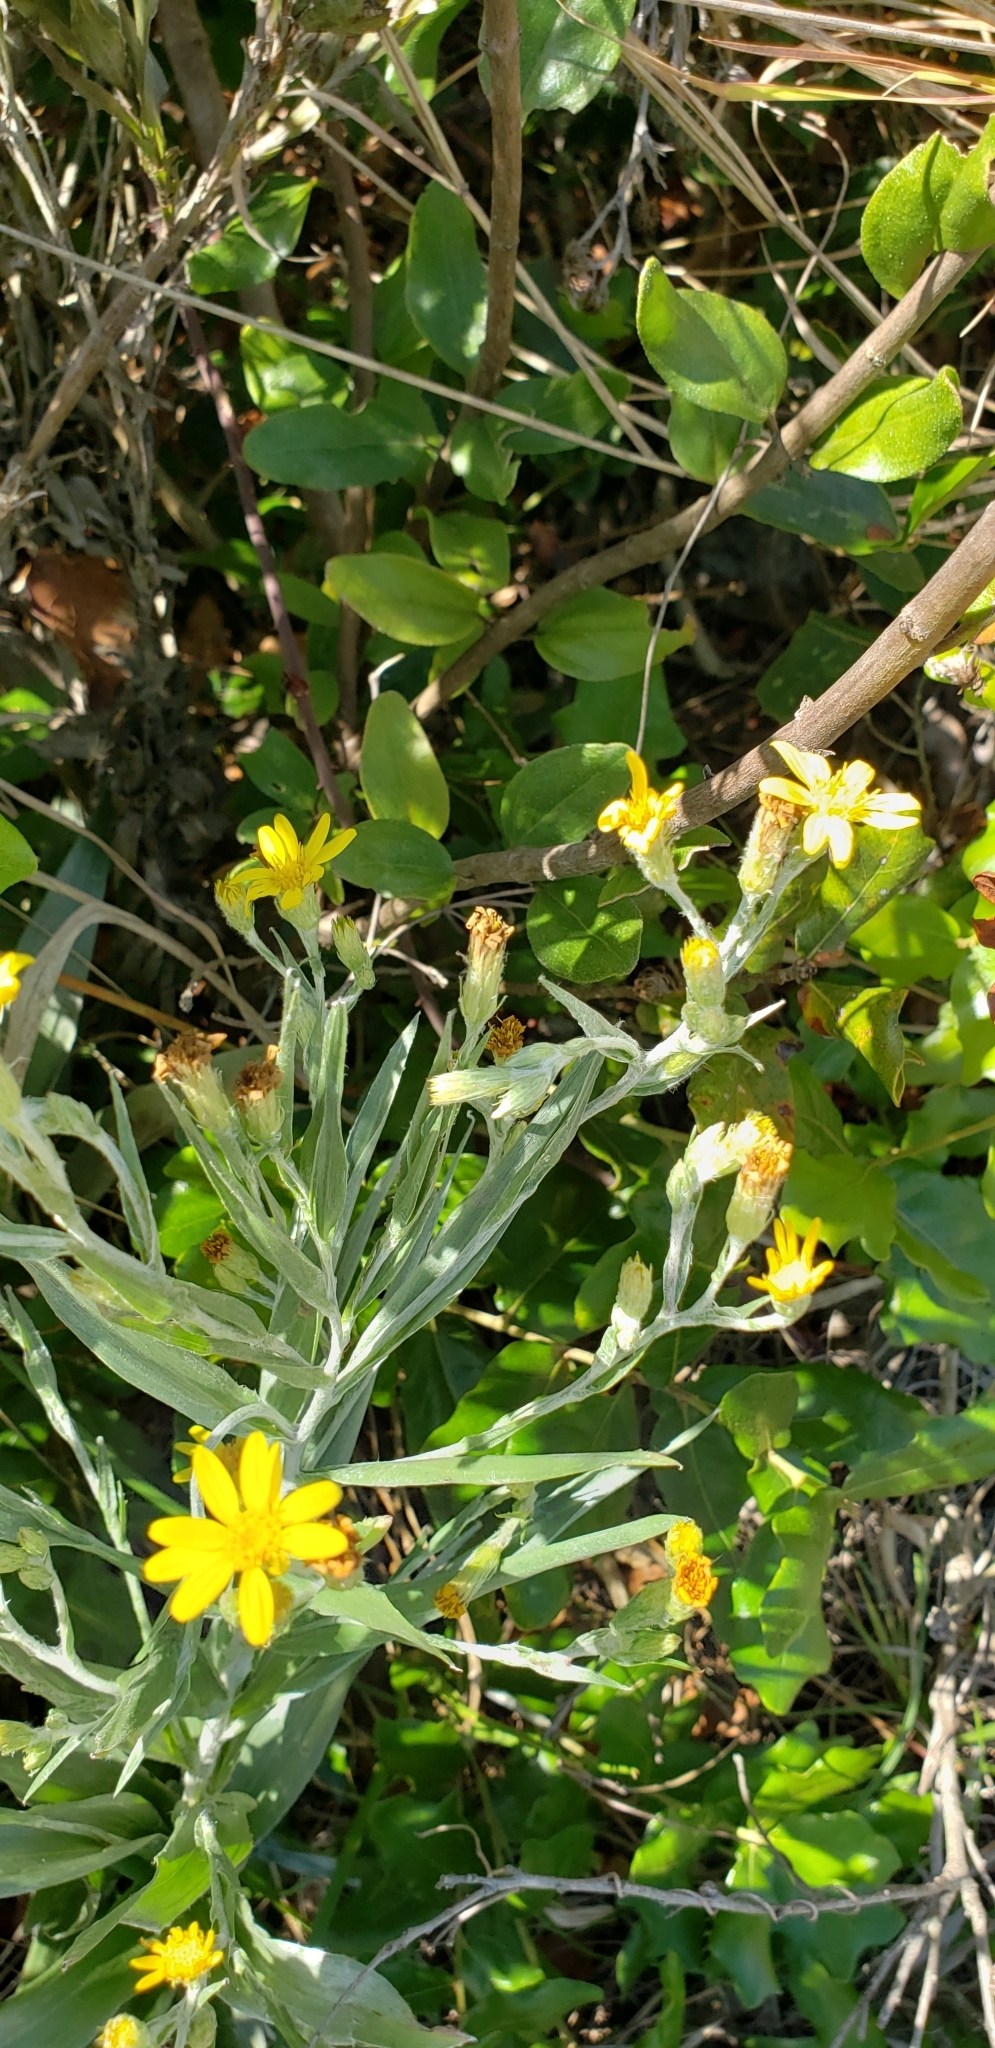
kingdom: Plantae
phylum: Tracheophyta
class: Magnoliopsida
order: Asterales
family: Asteraceae
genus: Pityopsis
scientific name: Pityopsis graminifolia
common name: Grass-leaf golden-aster
